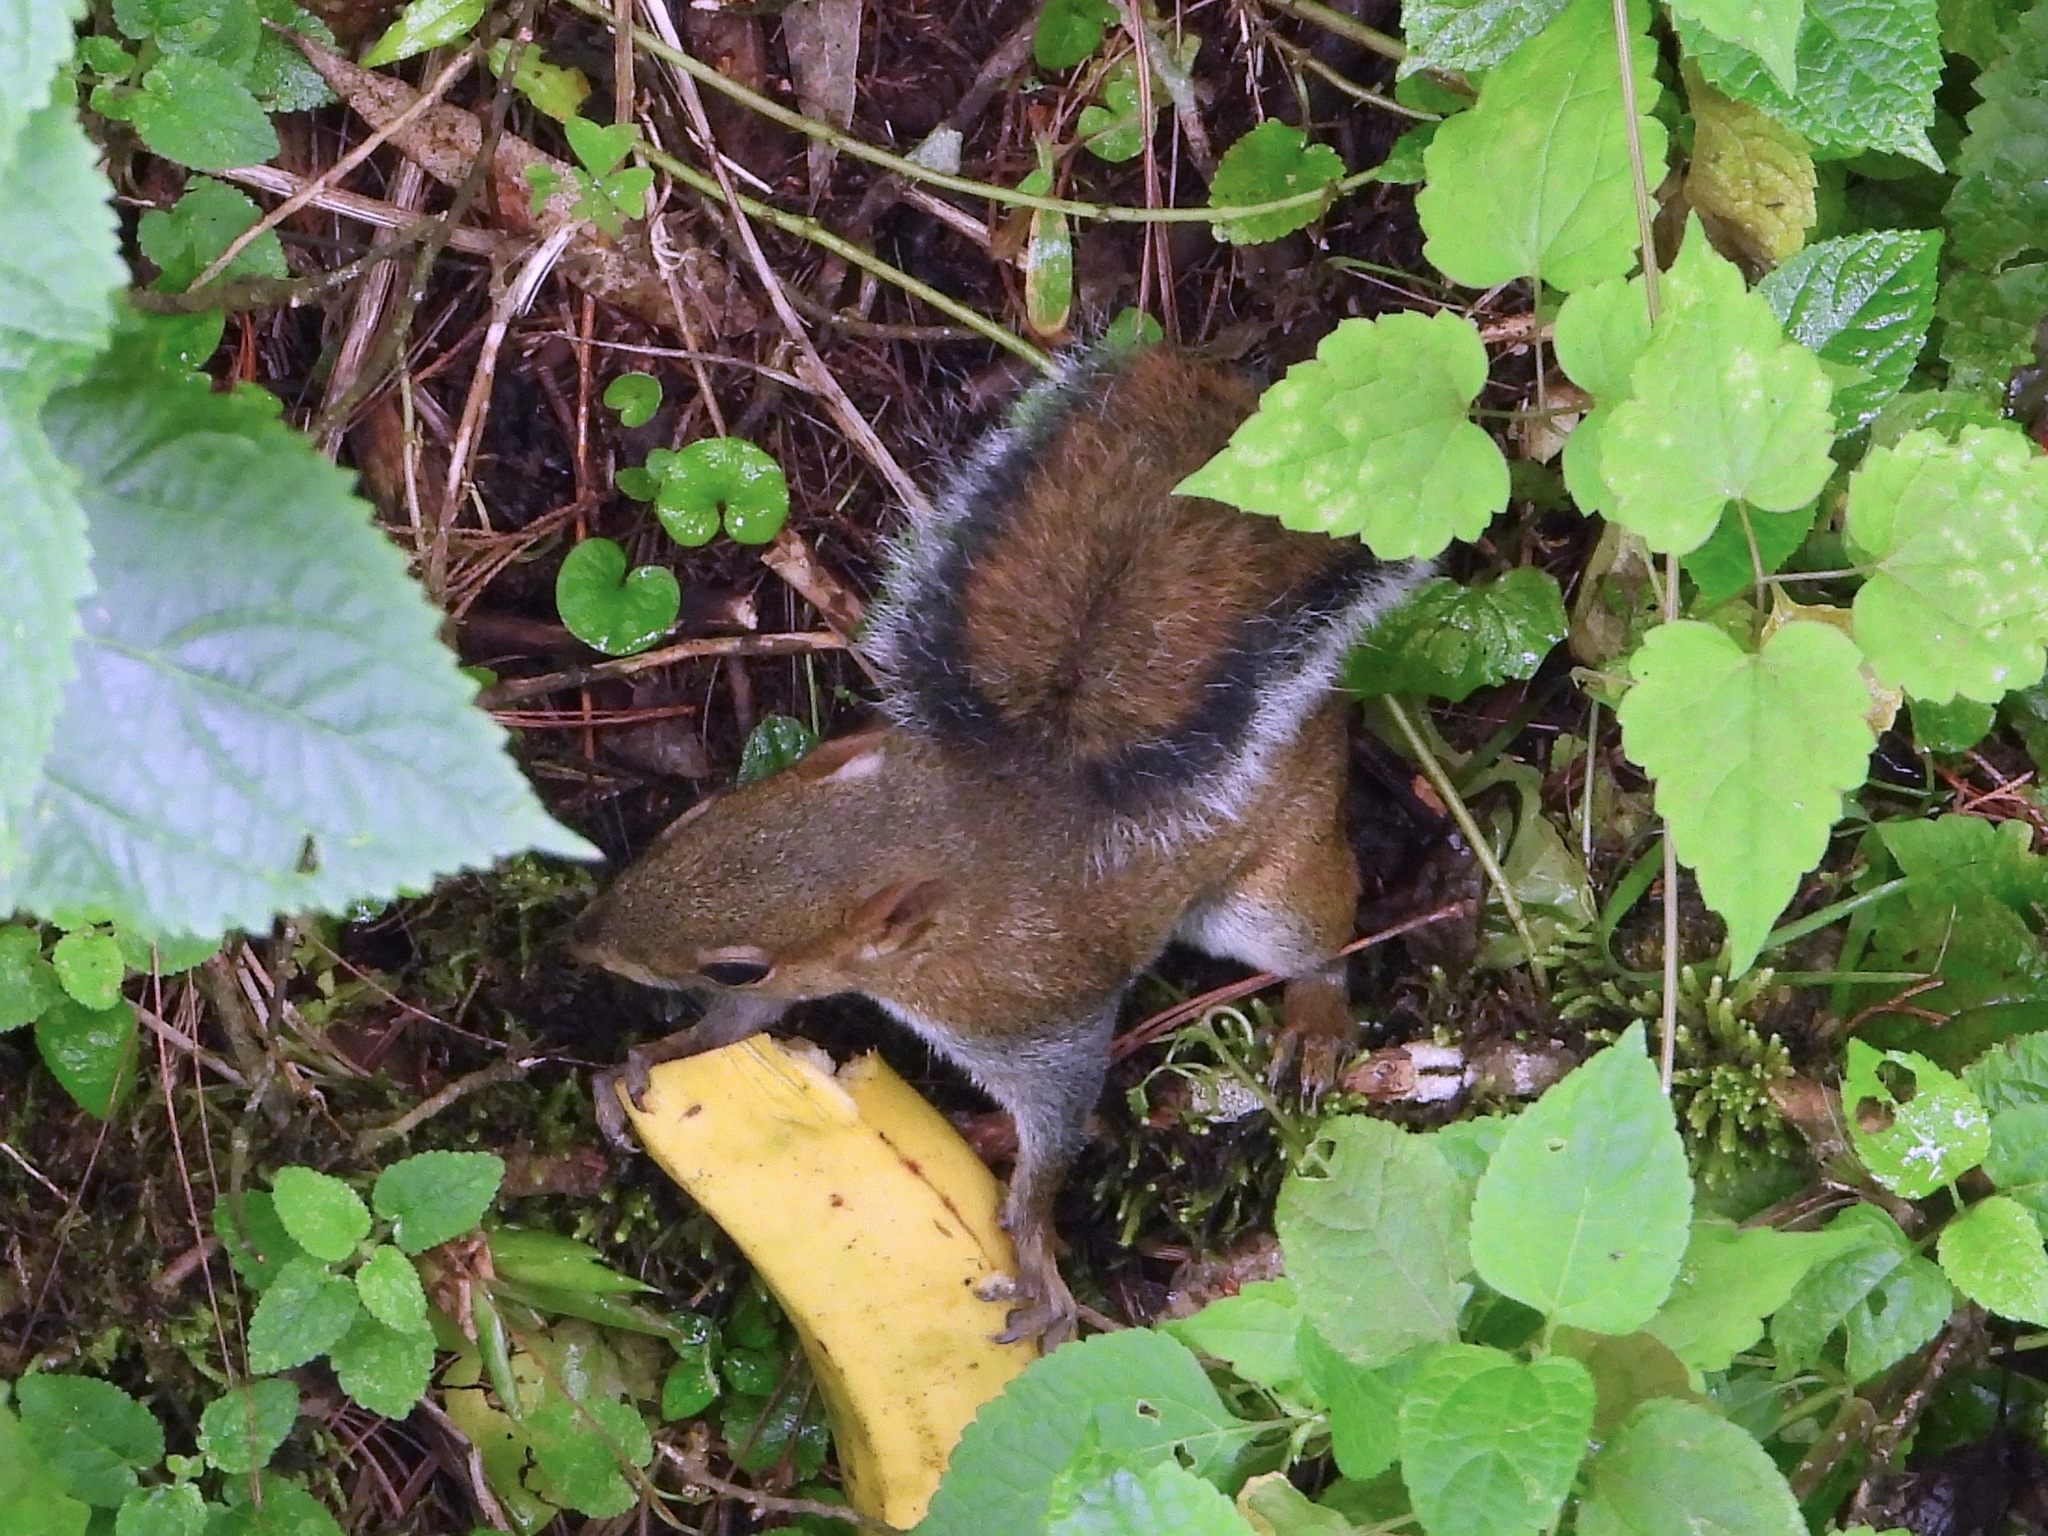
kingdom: Animalia
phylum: Chordata
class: Mammalia
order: Rodentia
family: Sciuridae
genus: Sciurus
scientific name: Sciurus deppei
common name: Deppe's squirrel
